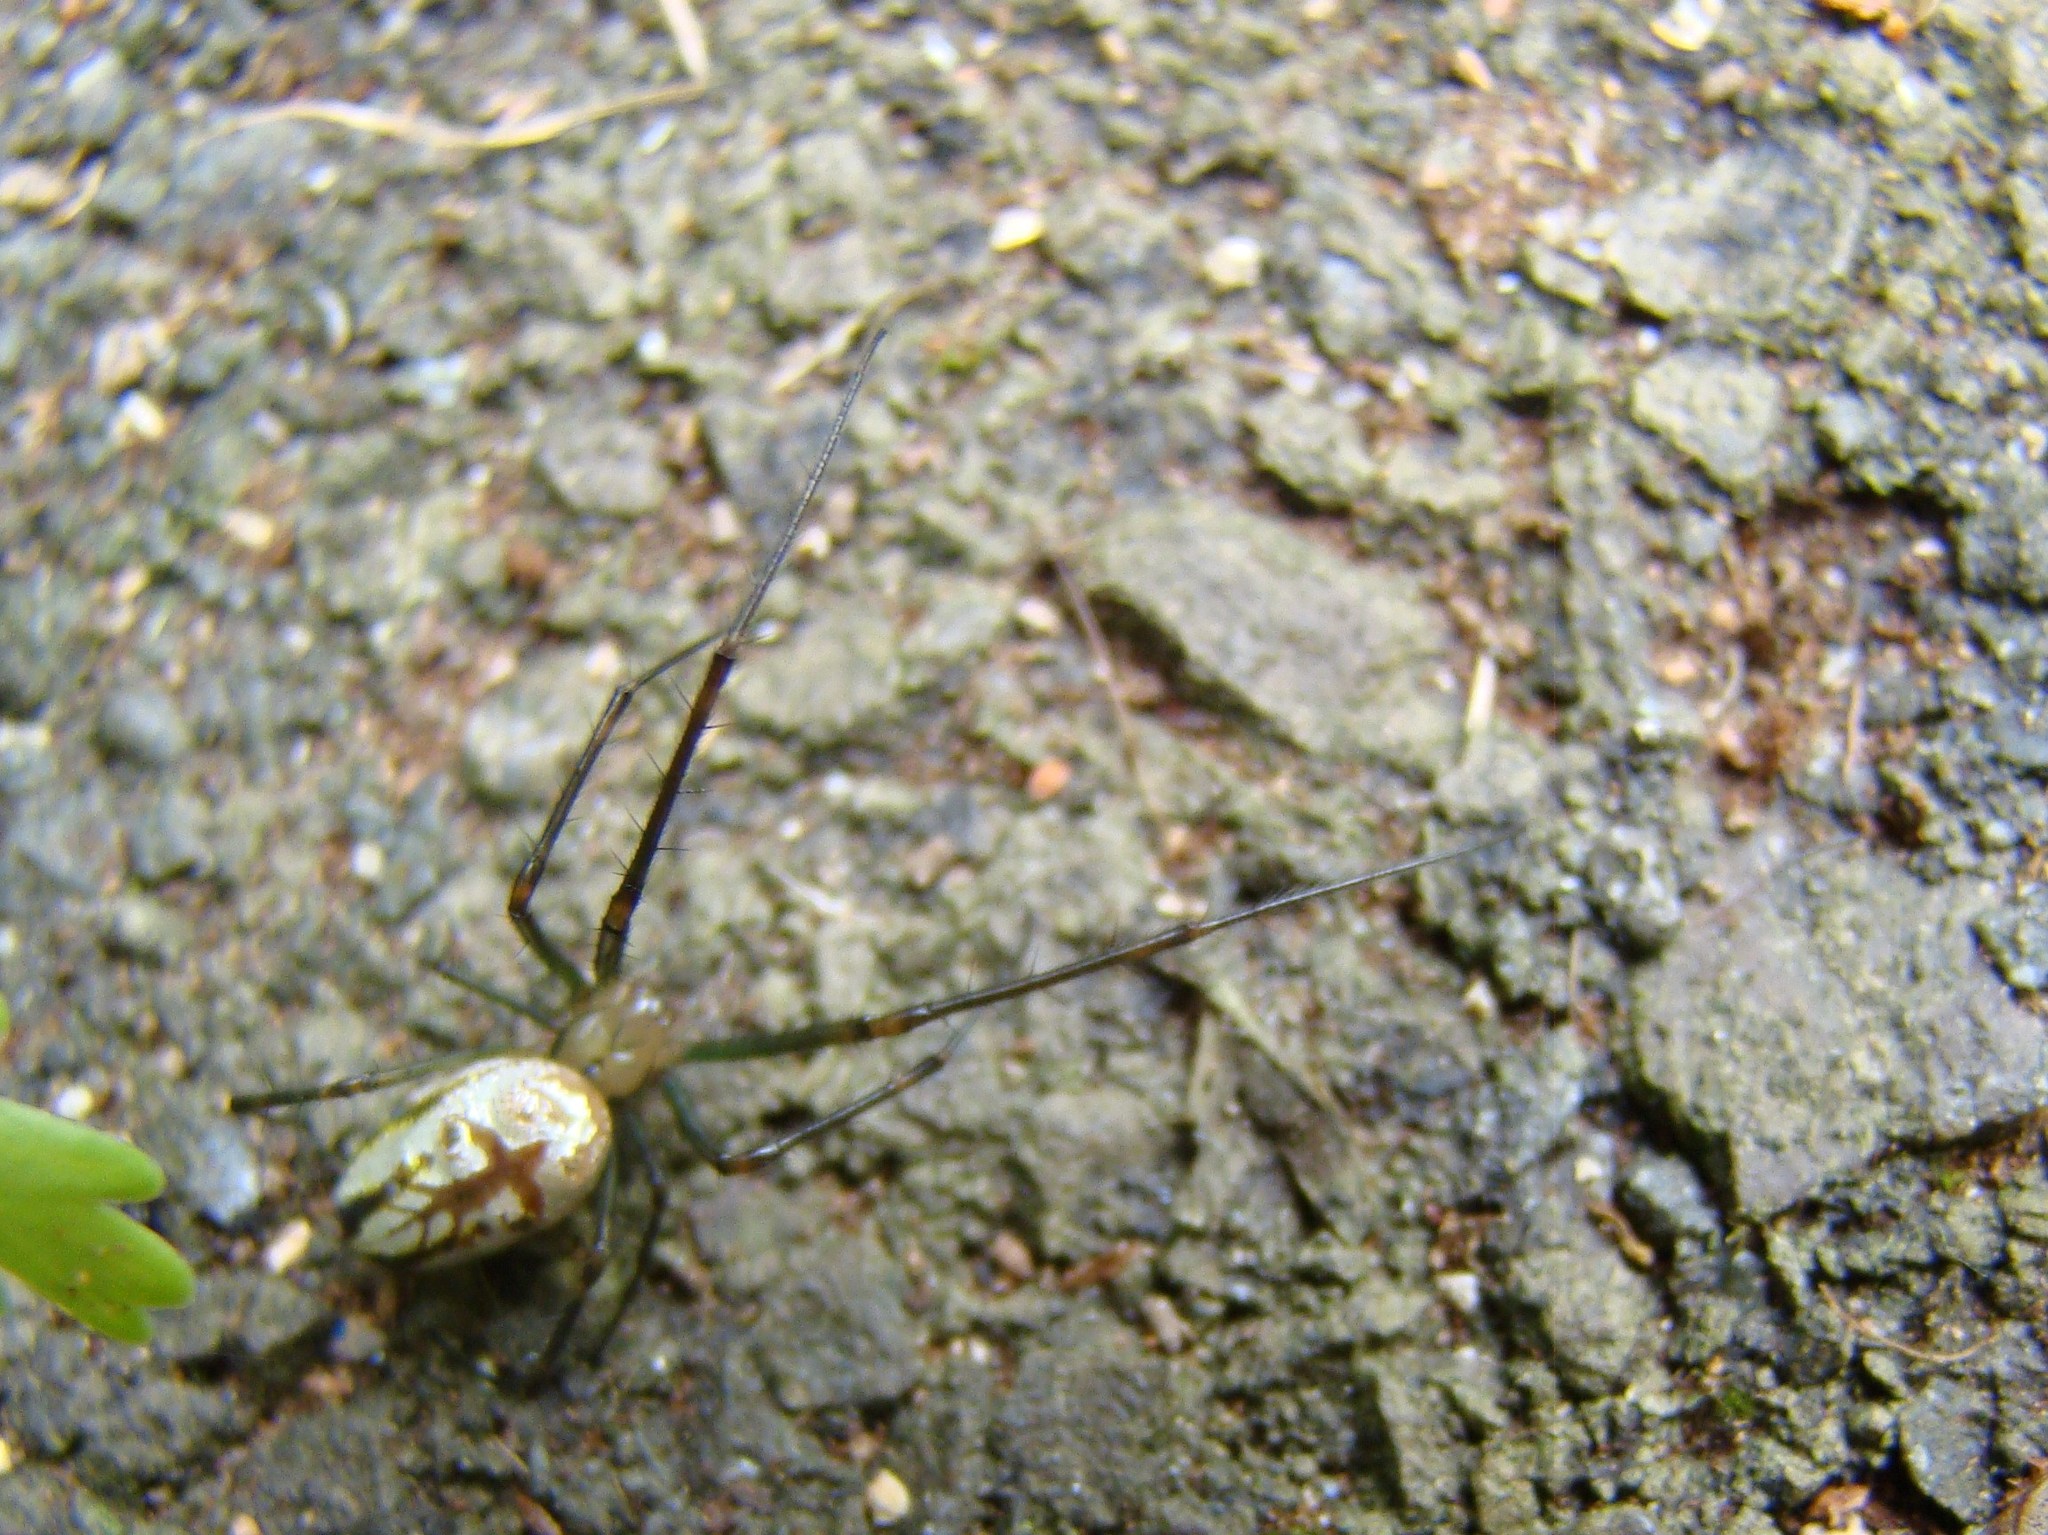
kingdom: Animalia
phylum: Arthropoda
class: Arachnida
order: Araneae
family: Tetragnathidae
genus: Leucauge
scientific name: Leucauge dromedaria
